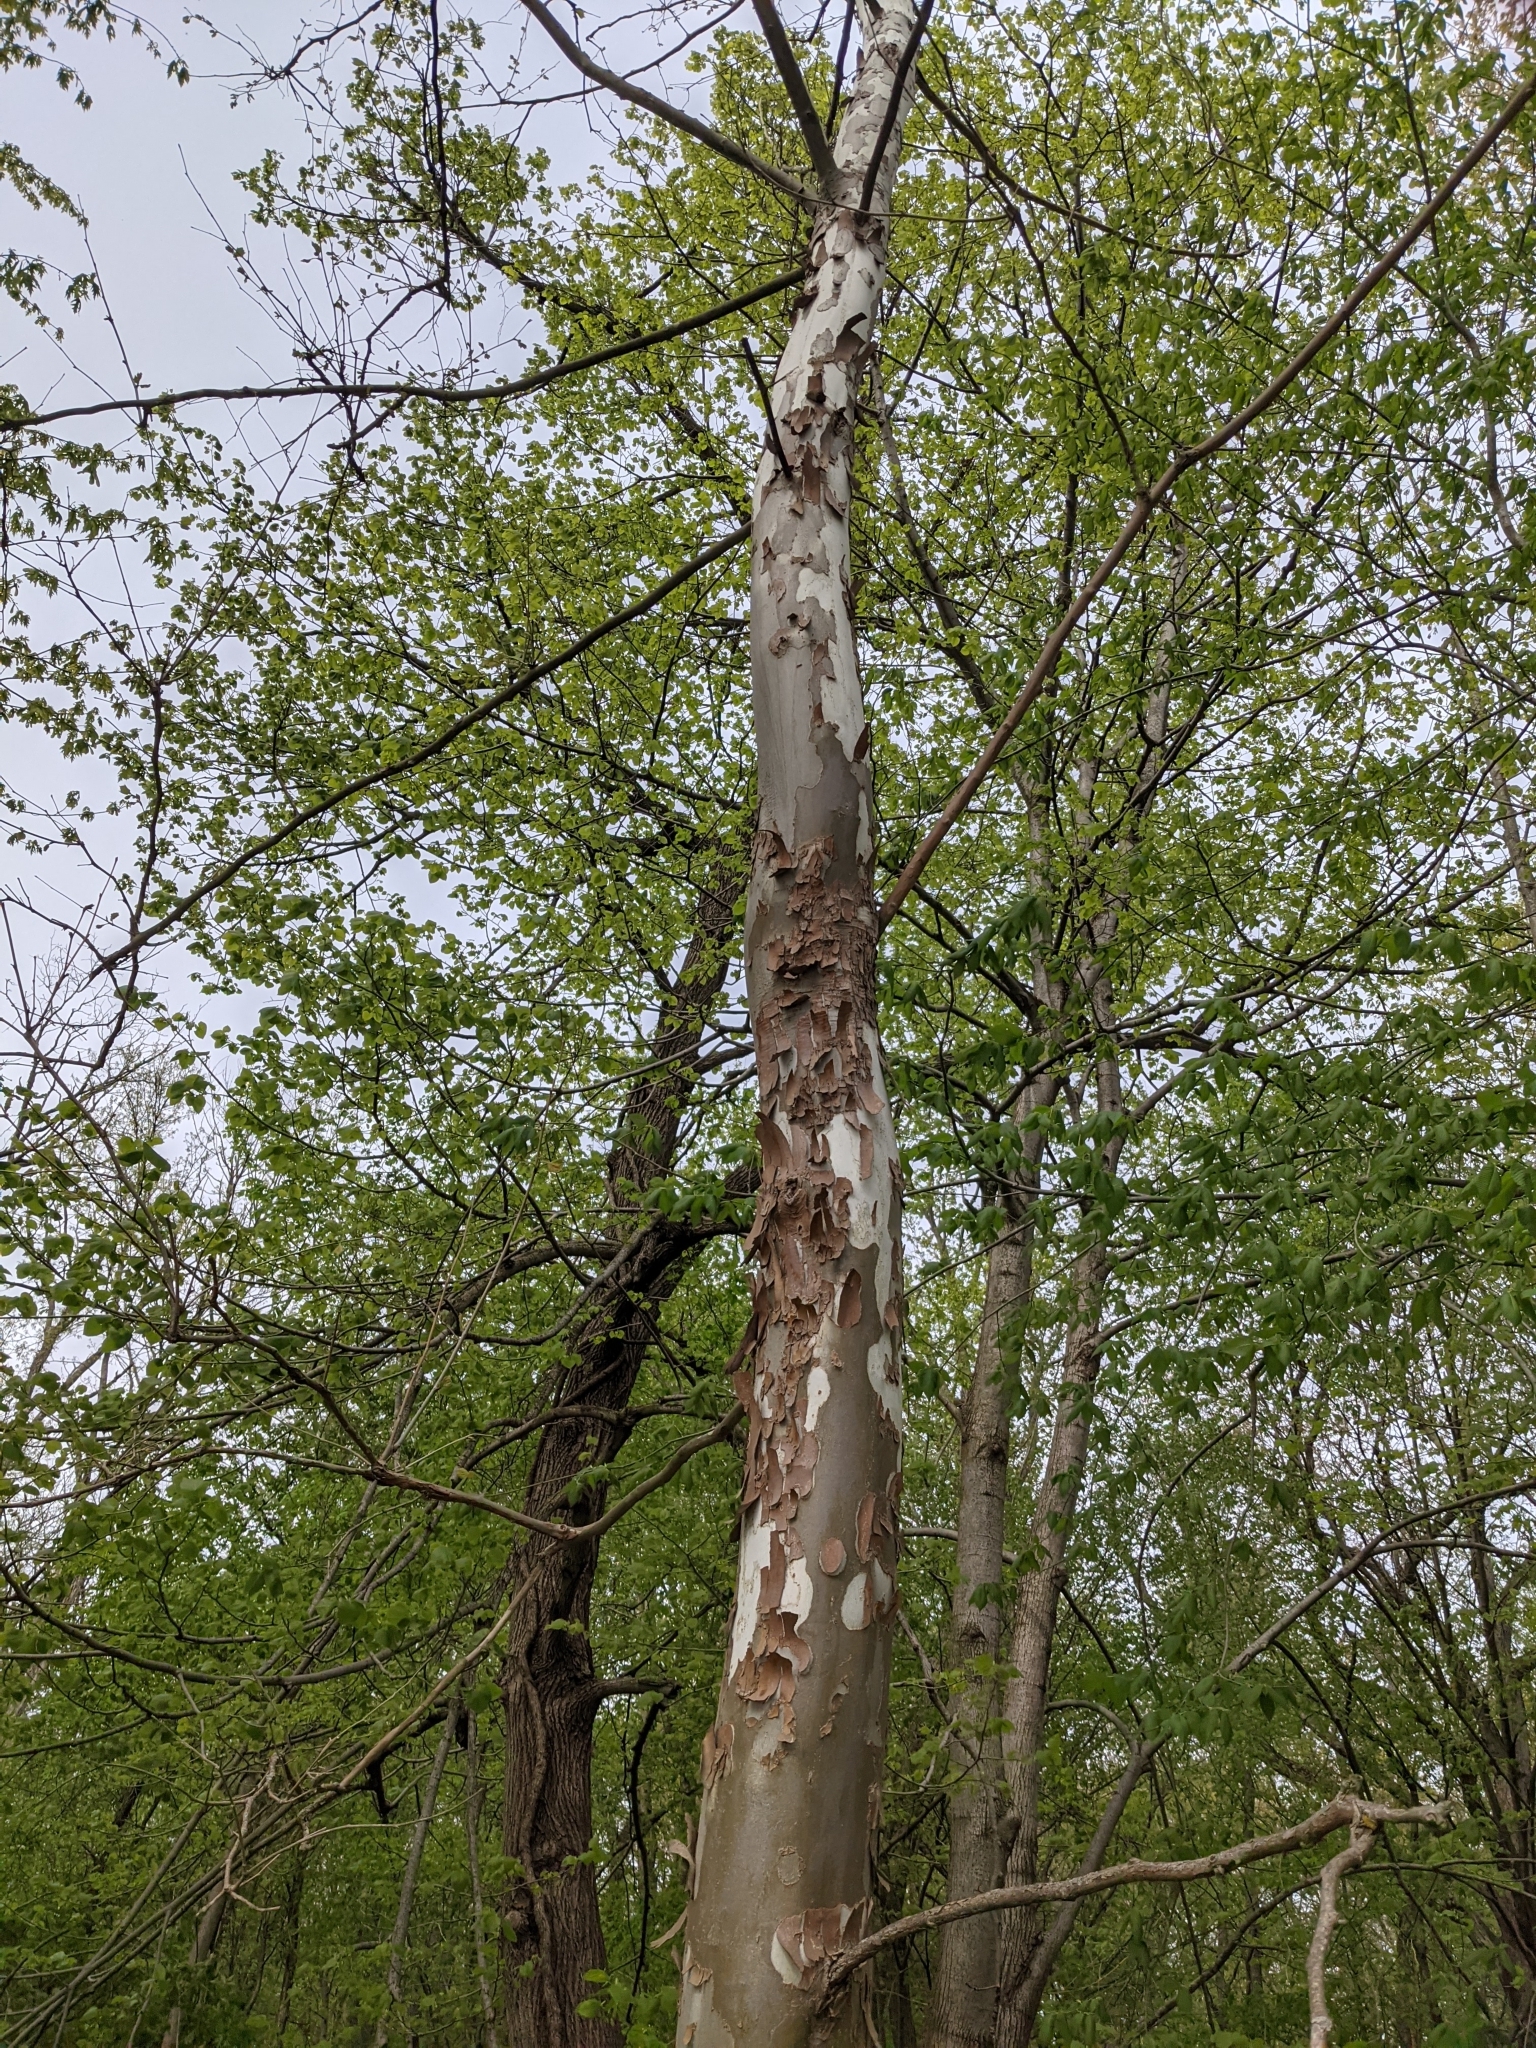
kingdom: Plantae
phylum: Tracheophyta
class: Magnoliopsida
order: Proteales
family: Platanaceae
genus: Platanus
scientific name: Platanus occidentalis
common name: American sycamore
